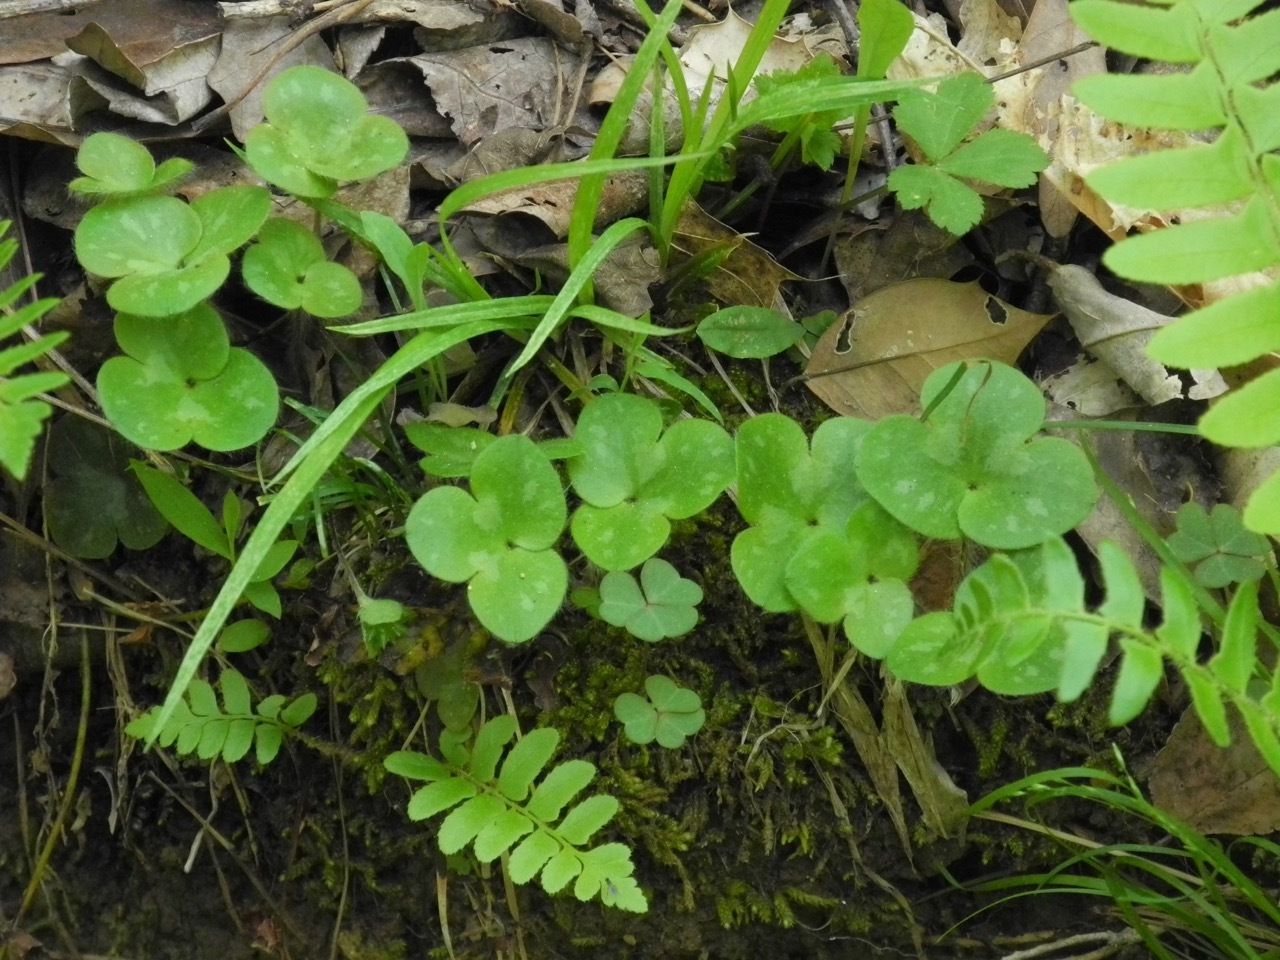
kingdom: Plantae
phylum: Tracheophyta
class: Magnoliopsida
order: Ranunculales
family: Ranunculaceae
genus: Hepatica
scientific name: Hepatica americana
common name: American hepatica
